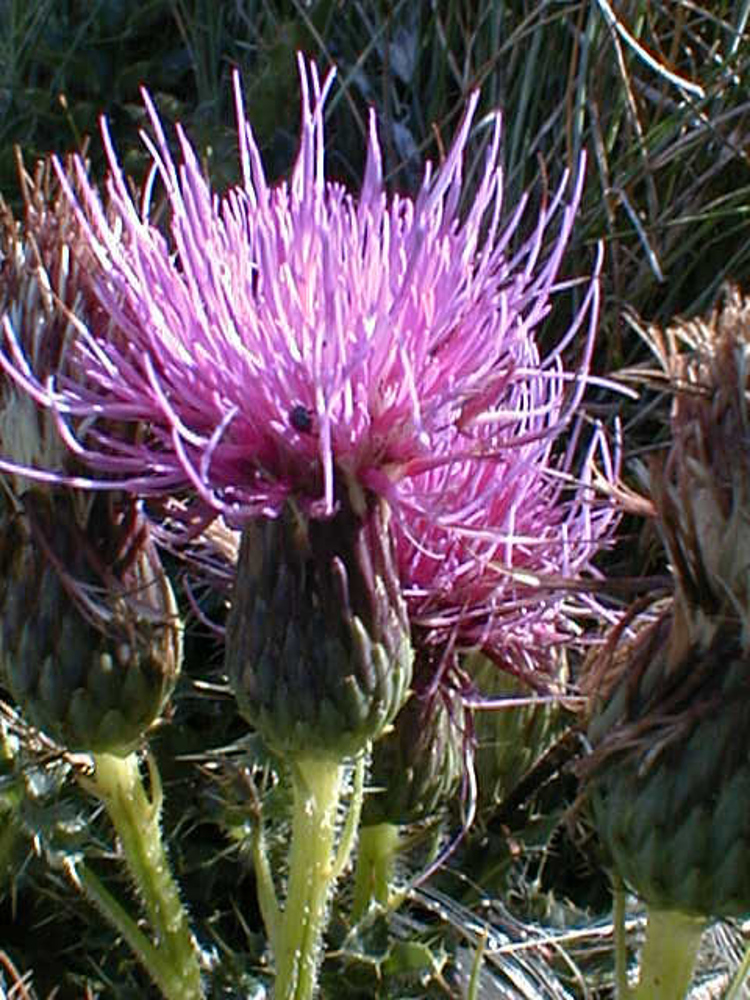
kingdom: Plantae
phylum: Tracheophyta
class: Magnoliopsida
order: Asterales
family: Asteraceae
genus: Cirsium
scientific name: Cirsium acaulon
